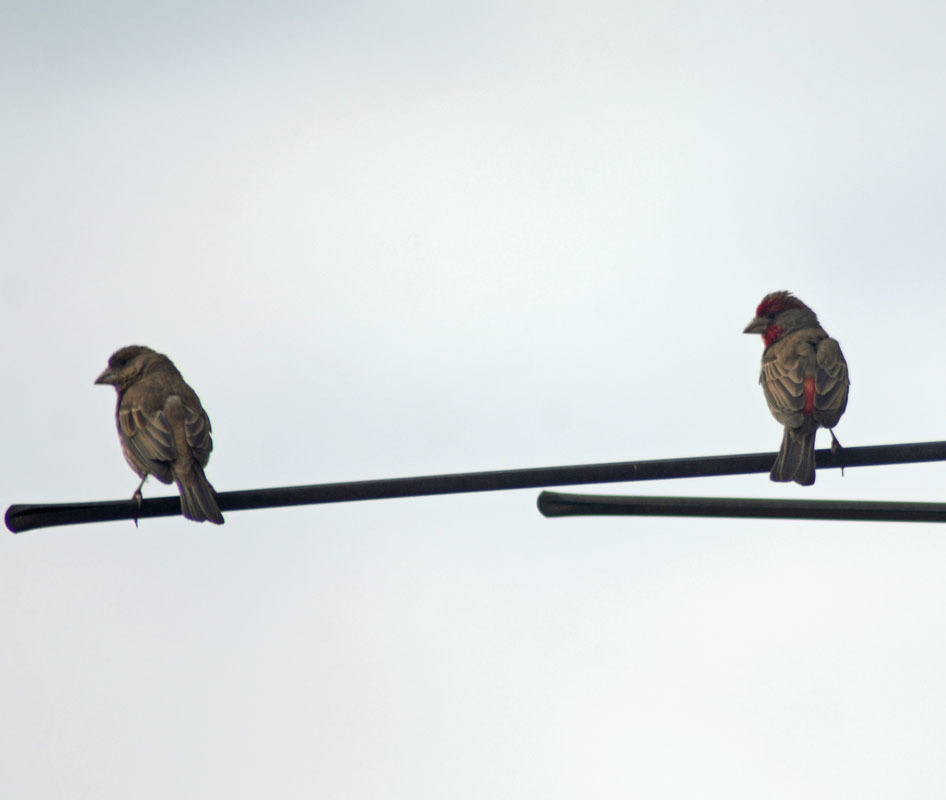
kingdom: Animalia
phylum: Chordata
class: Aves
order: Passeriformes
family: Fringillidae
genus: Haemorhous
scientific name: Haemorhous mexicanus
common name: House finch
